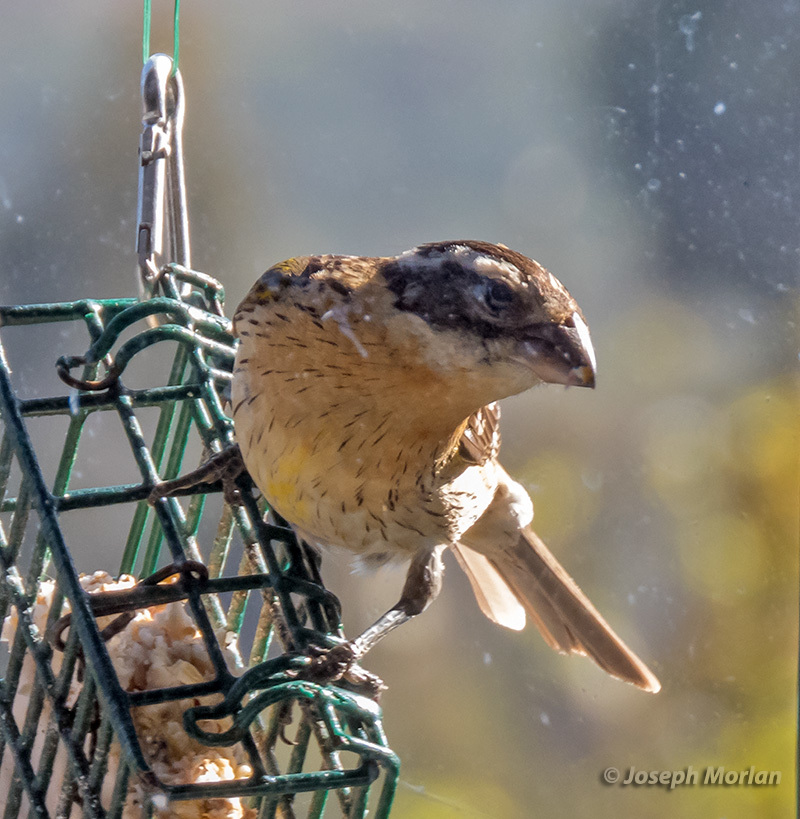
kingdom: Animalia
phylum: Chordata
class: Aves
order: Passeriformes
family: Cardinalidae
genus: Pheucticus
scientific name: Pheucticus melanocephalus
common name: Black-headed grosbeak
